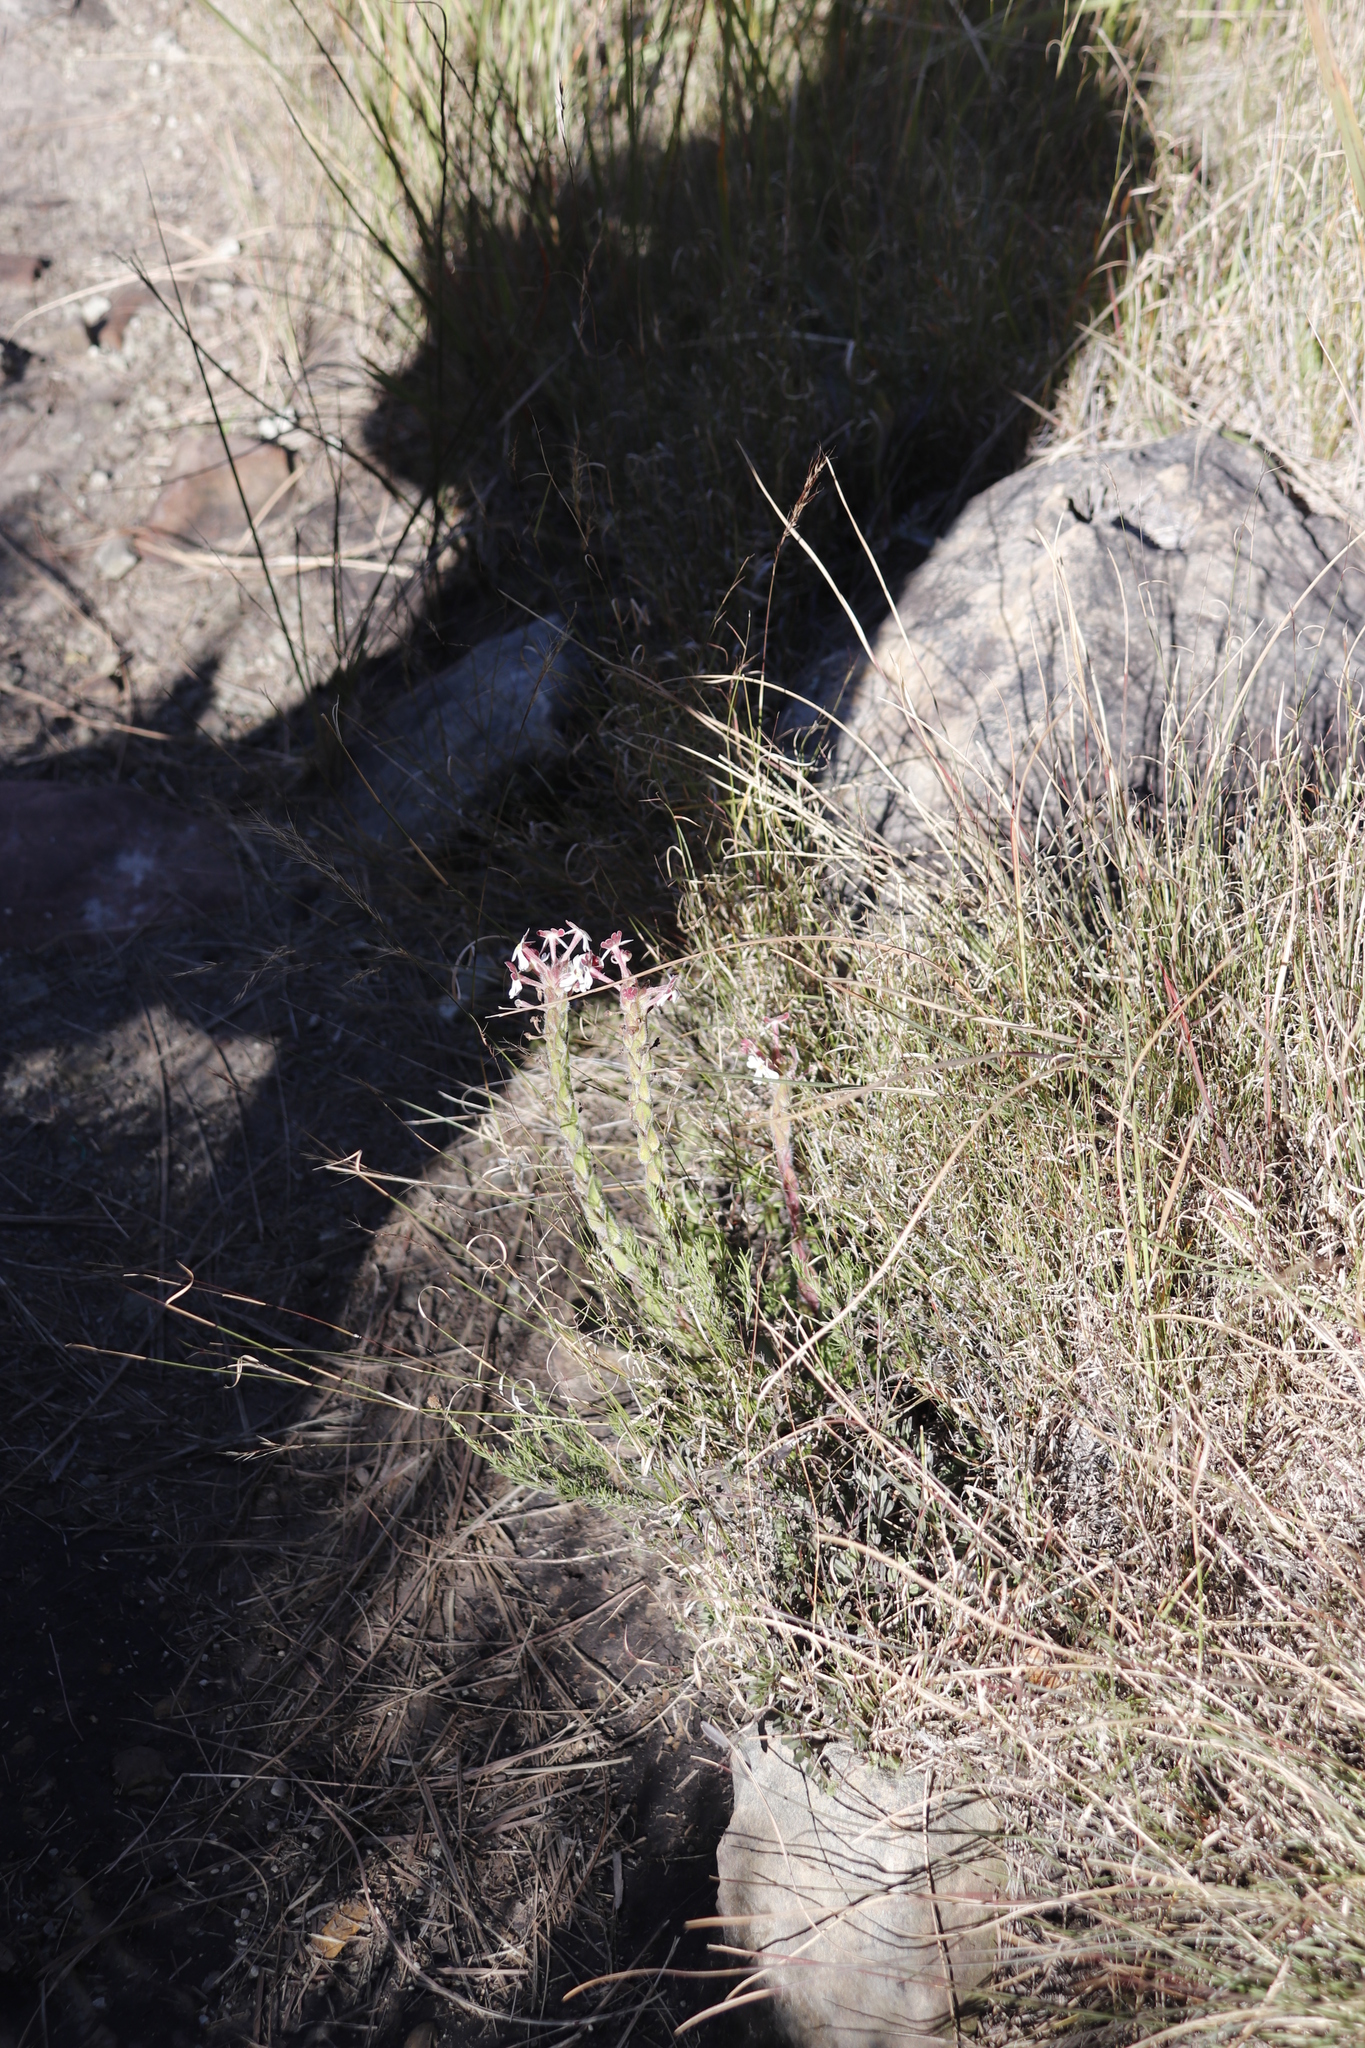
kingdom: Plantae
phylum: Tracheophyta
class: Magnoliopsida
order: Lamiales
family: Scrophulariaceae
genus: Zaluzianskya
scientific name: Zaluzianskya microsiphon
